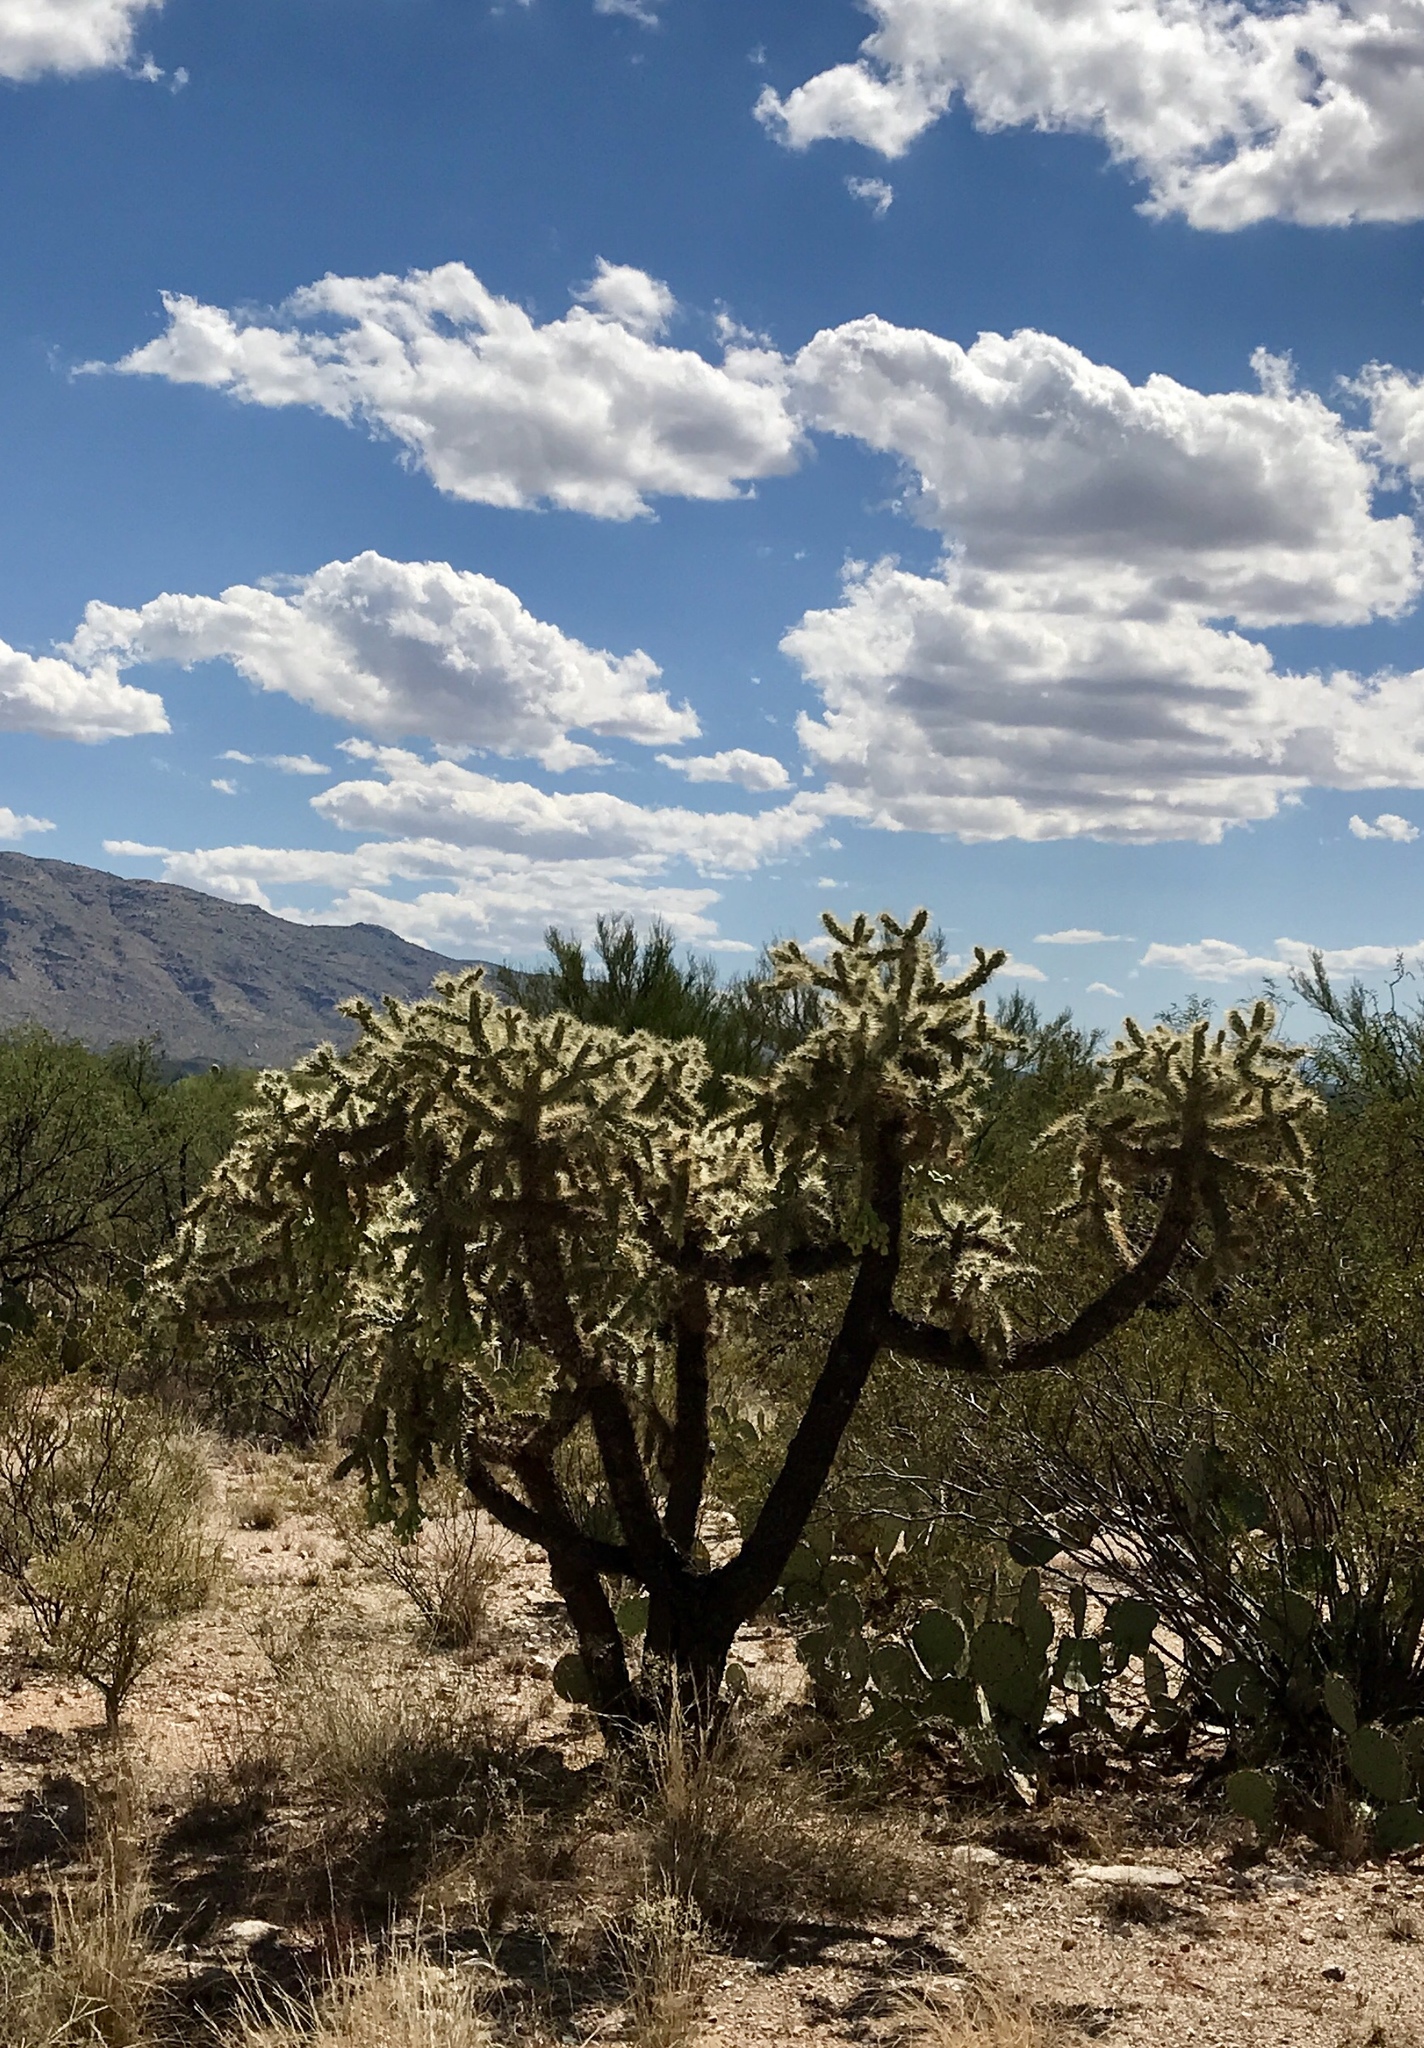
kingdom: Plantae
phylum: Tracheophyta
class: Magnoliopsida
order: Caryophyllales
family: Cactaceae
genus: Cylindropuntia
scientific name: Cylindropuntia fulgida
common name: Jumping cholla
